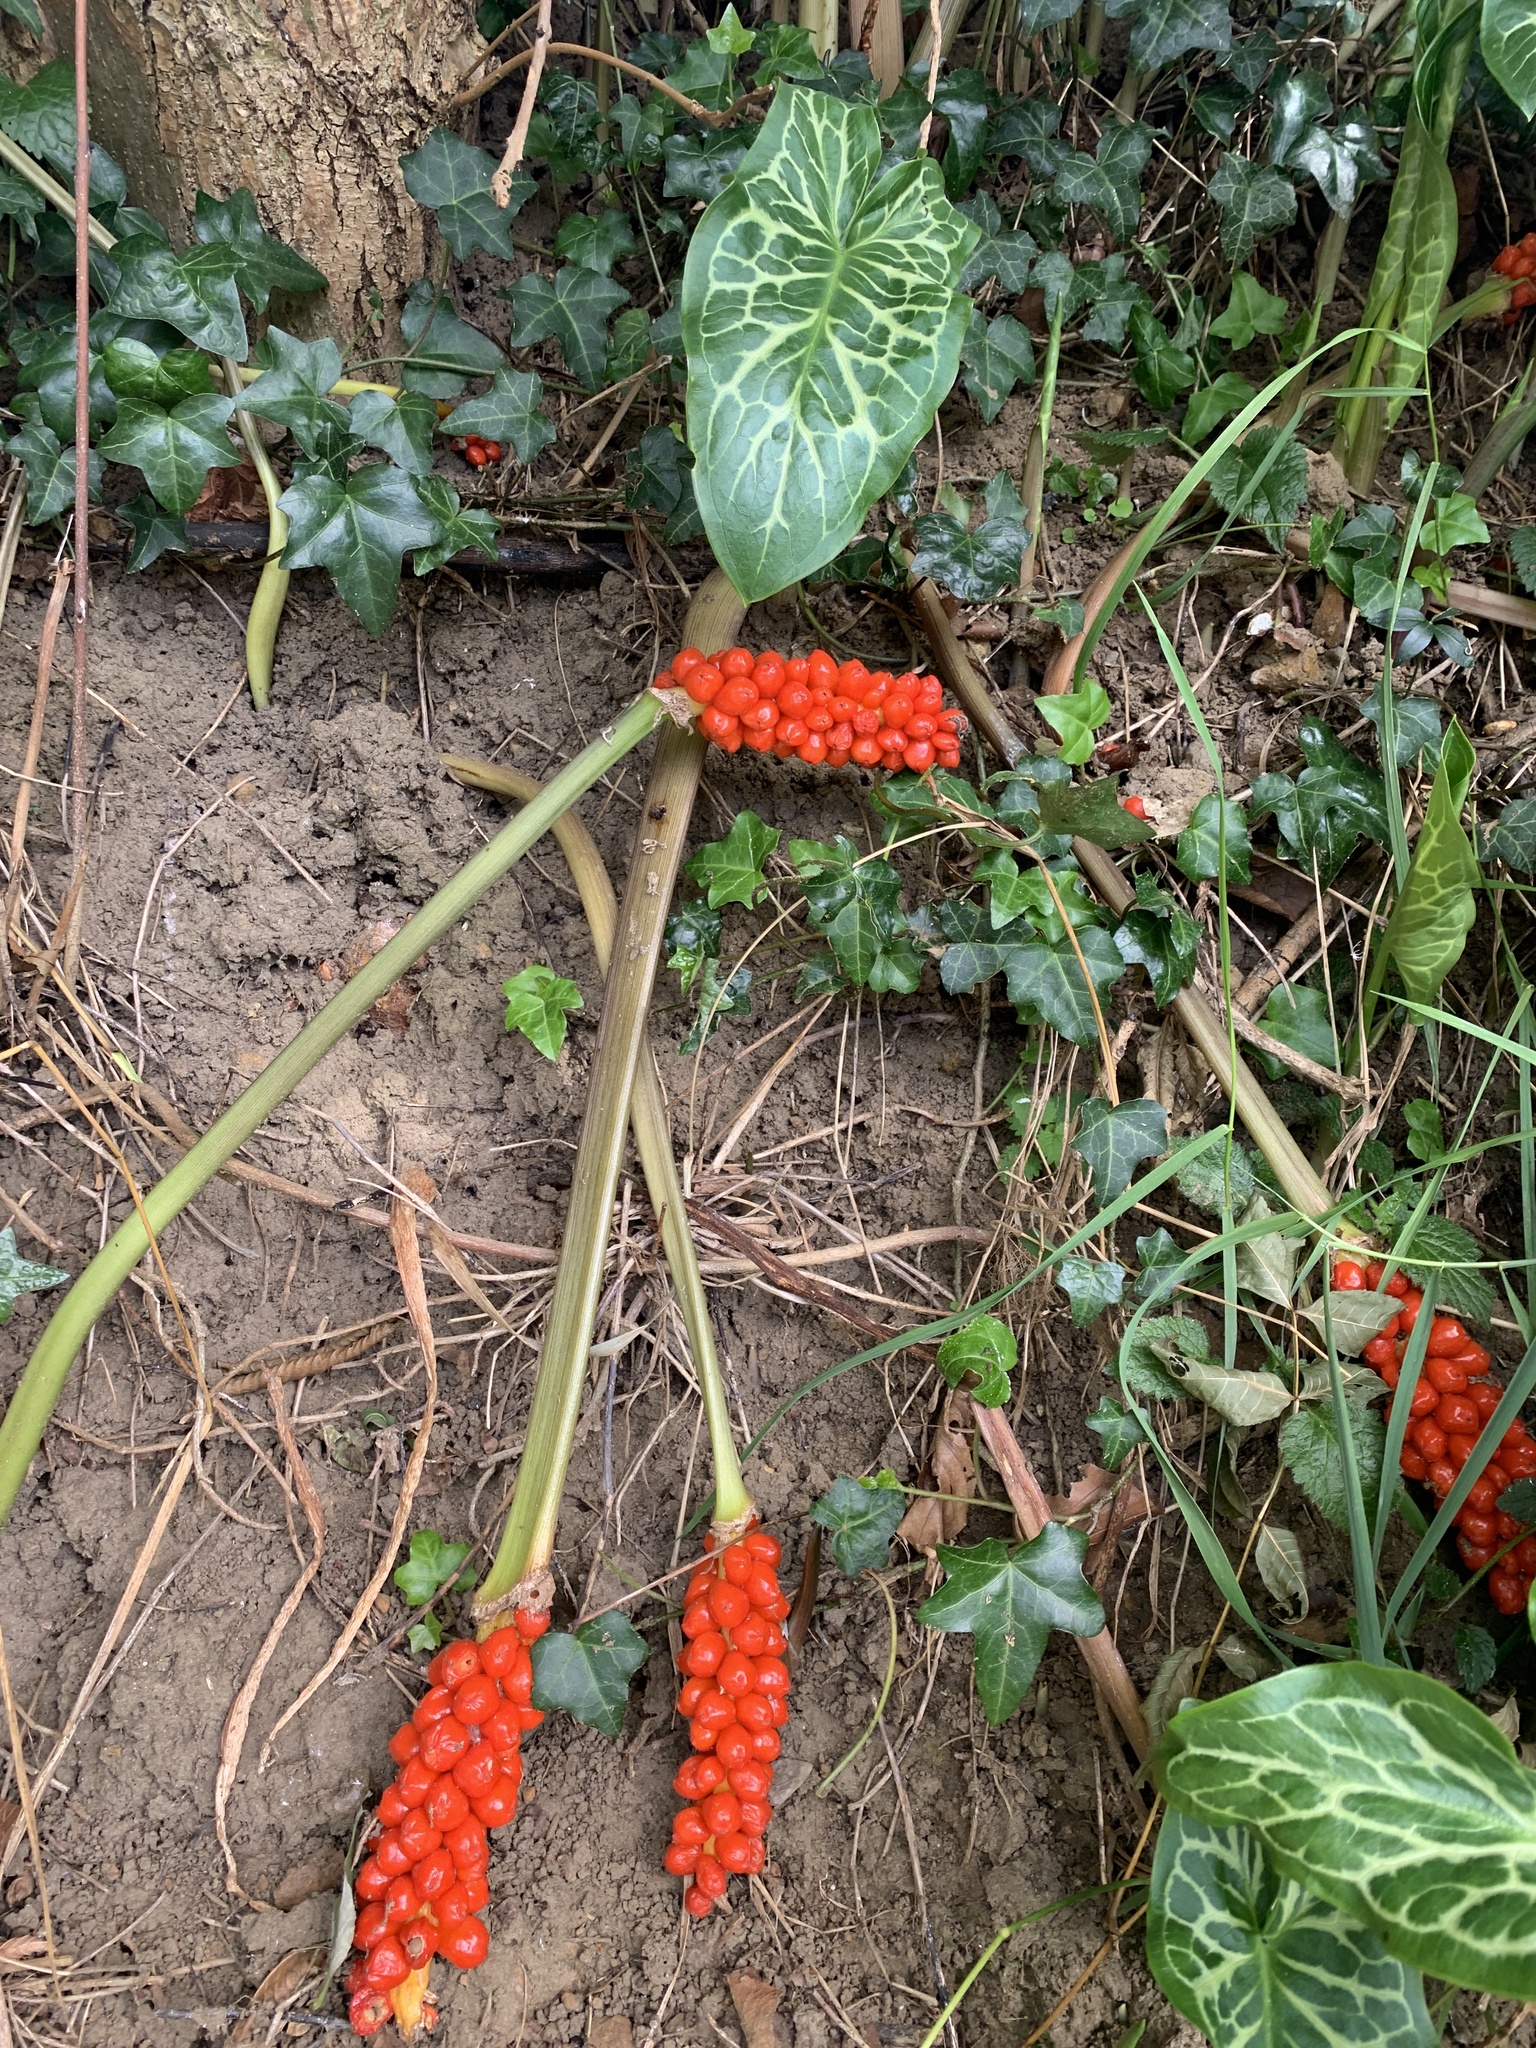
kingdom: Plantae
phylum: Tracheophyta
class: Liliopsida
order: Alismatales
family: Araceae
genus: Arum
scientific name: Arum italicum
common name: Italian lords-and-ladies
